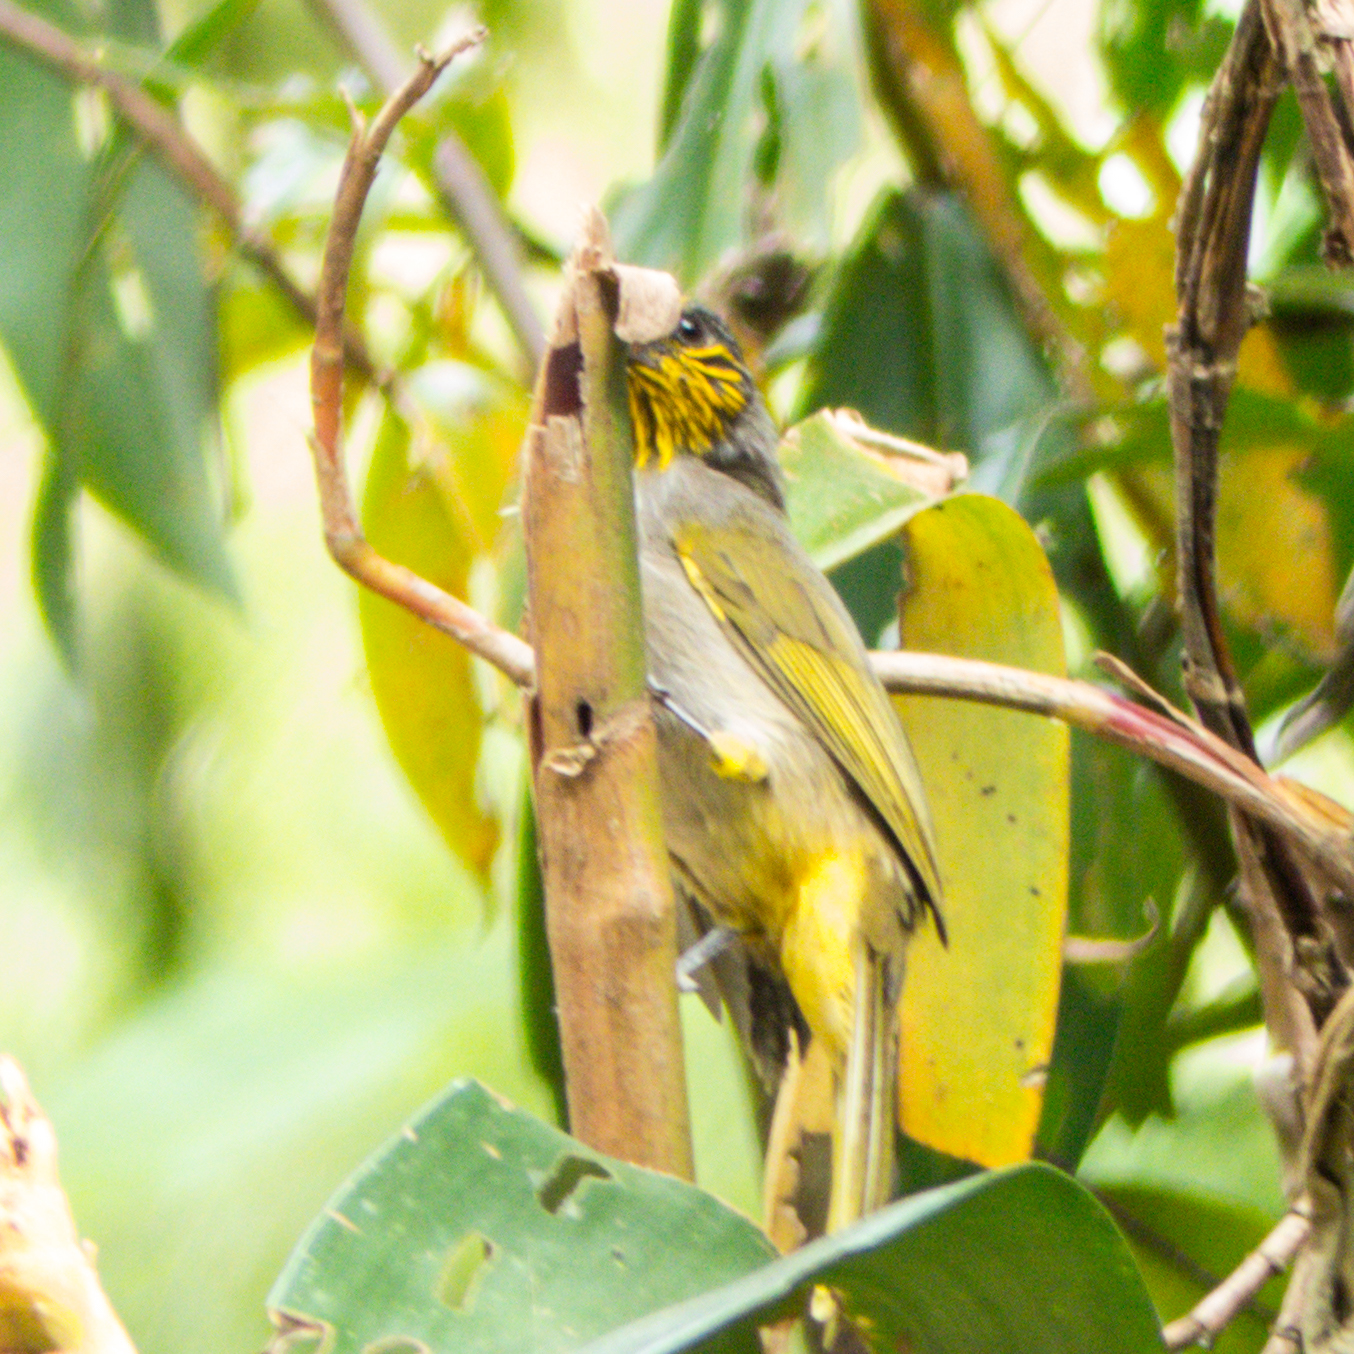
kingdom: Animalia
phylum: Chordata
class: Aves
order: Passeriformes
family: Pycnonotidae
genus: Pycnonotus
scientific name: Pycnonotus finlaysoni
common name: Stripe-throated bulbul
